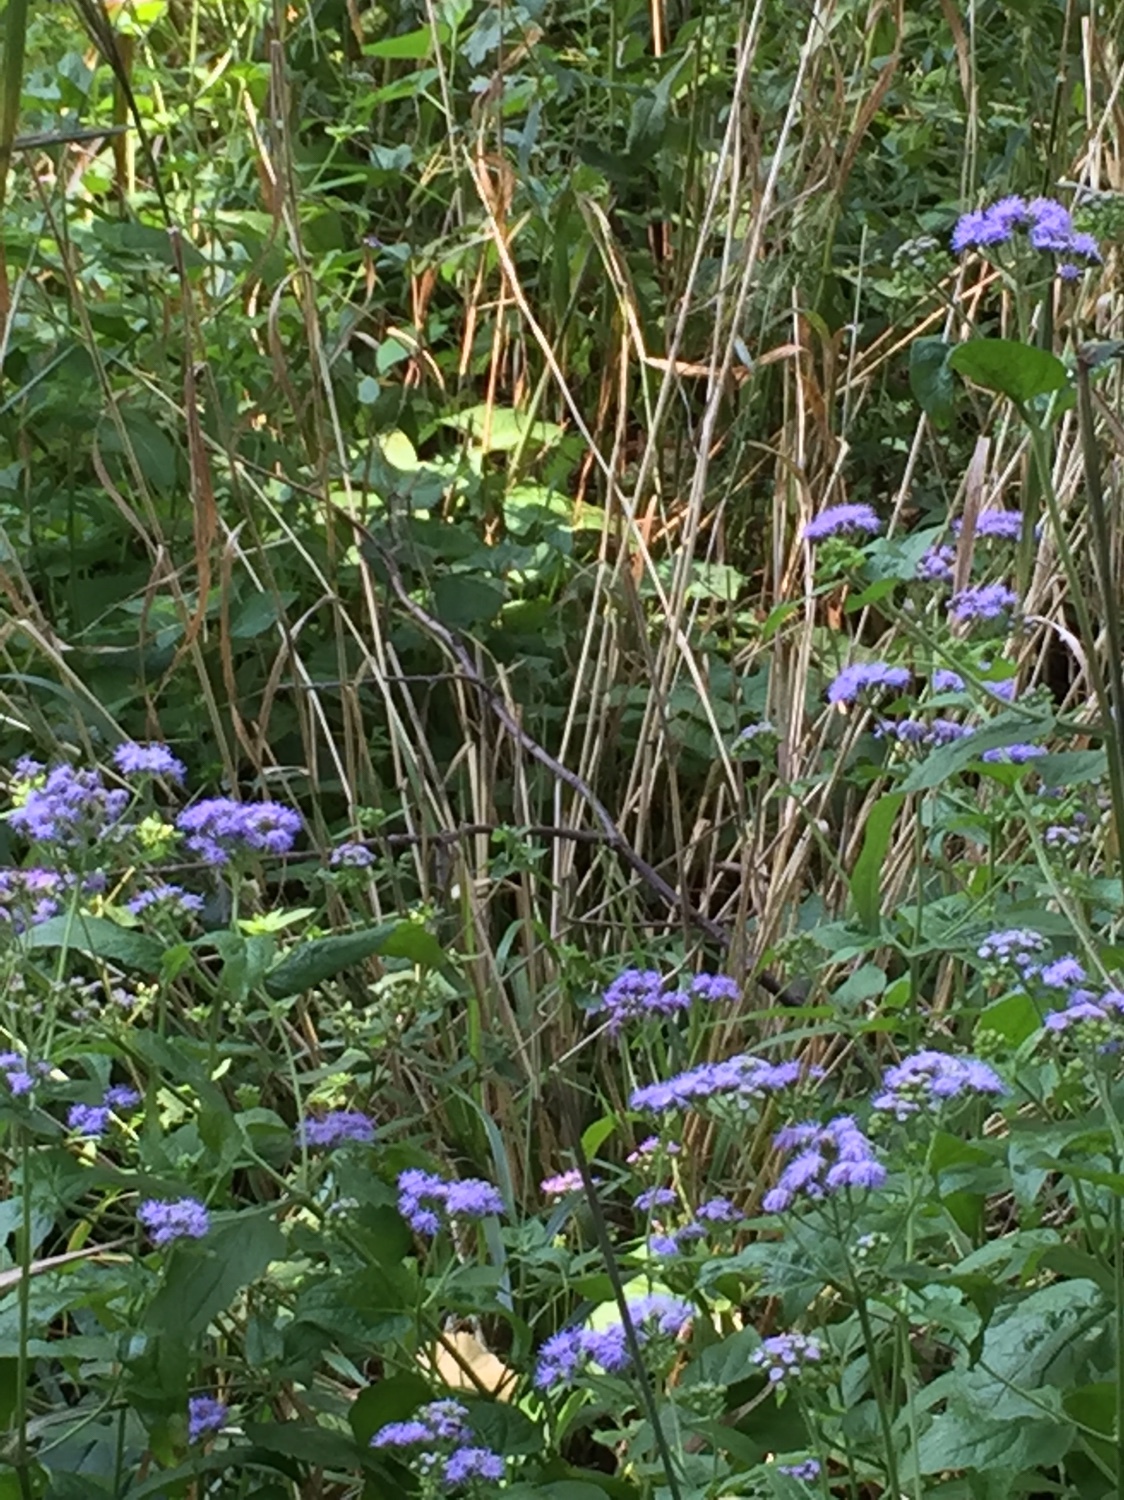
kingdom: Plantae
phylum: Tracheophyta
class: Magnoliopsida
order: Asterales
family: Asteraceae
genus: Conoclinium
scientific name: Conoclinium coelestinum
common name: Blue mistflower
